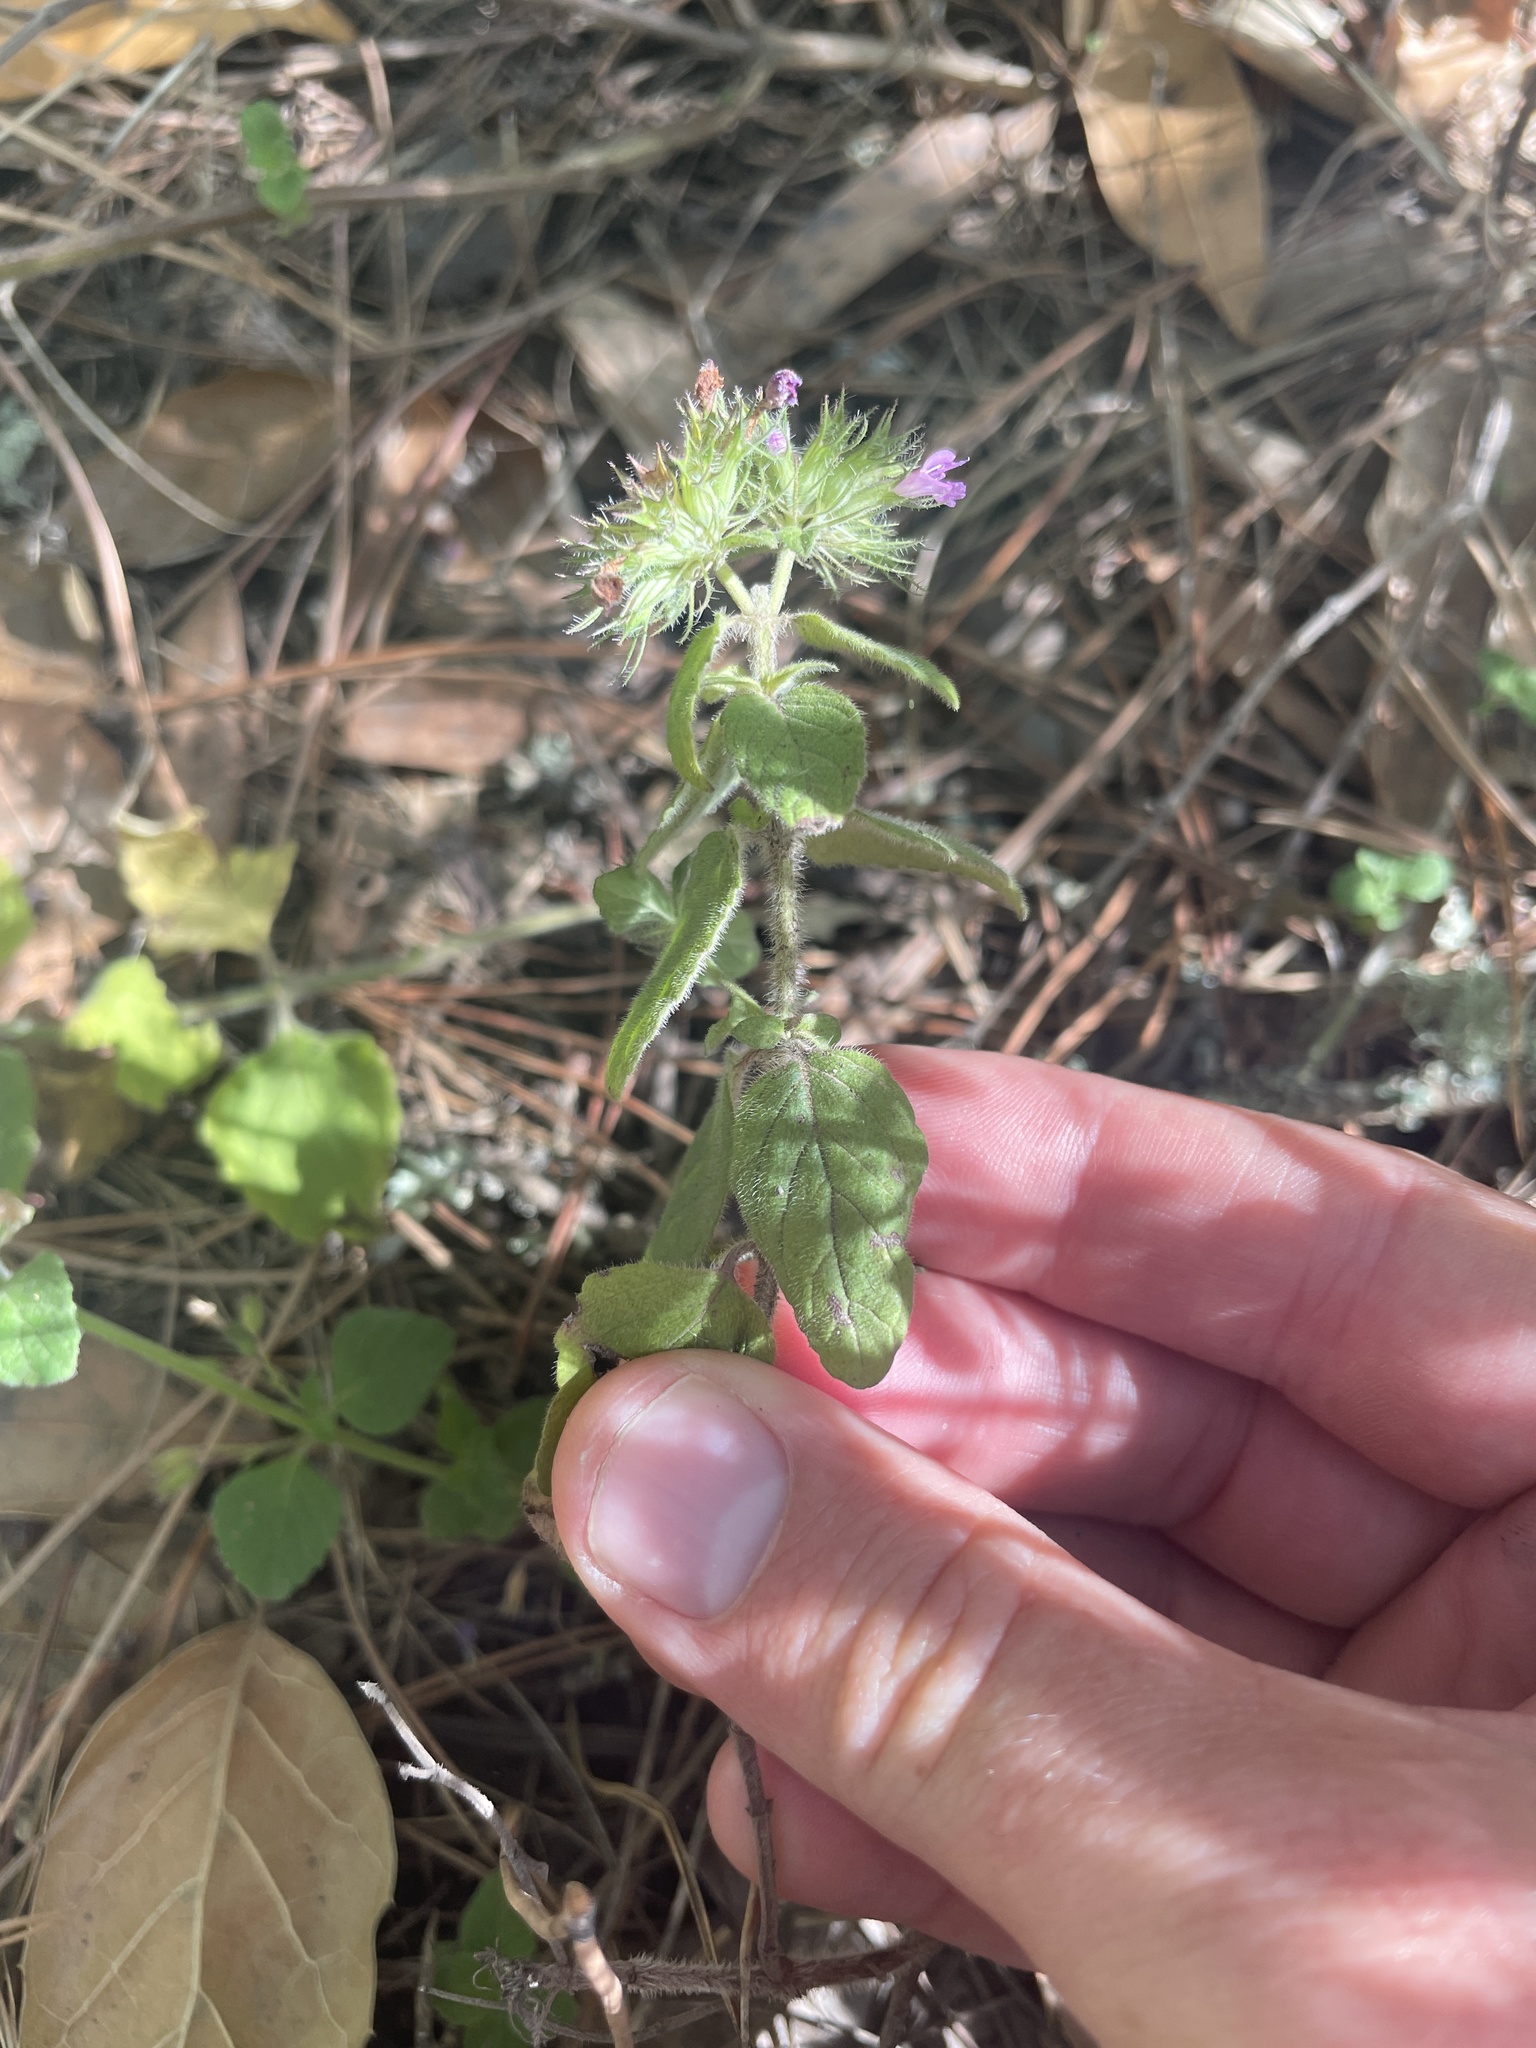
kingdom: Plantae
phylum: Tracheophyta
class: Magnoliopsida
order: Lamiales
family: Lamiaceae
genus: Clinopodium
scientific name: Clinopodium vulgare
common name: Wild basil
